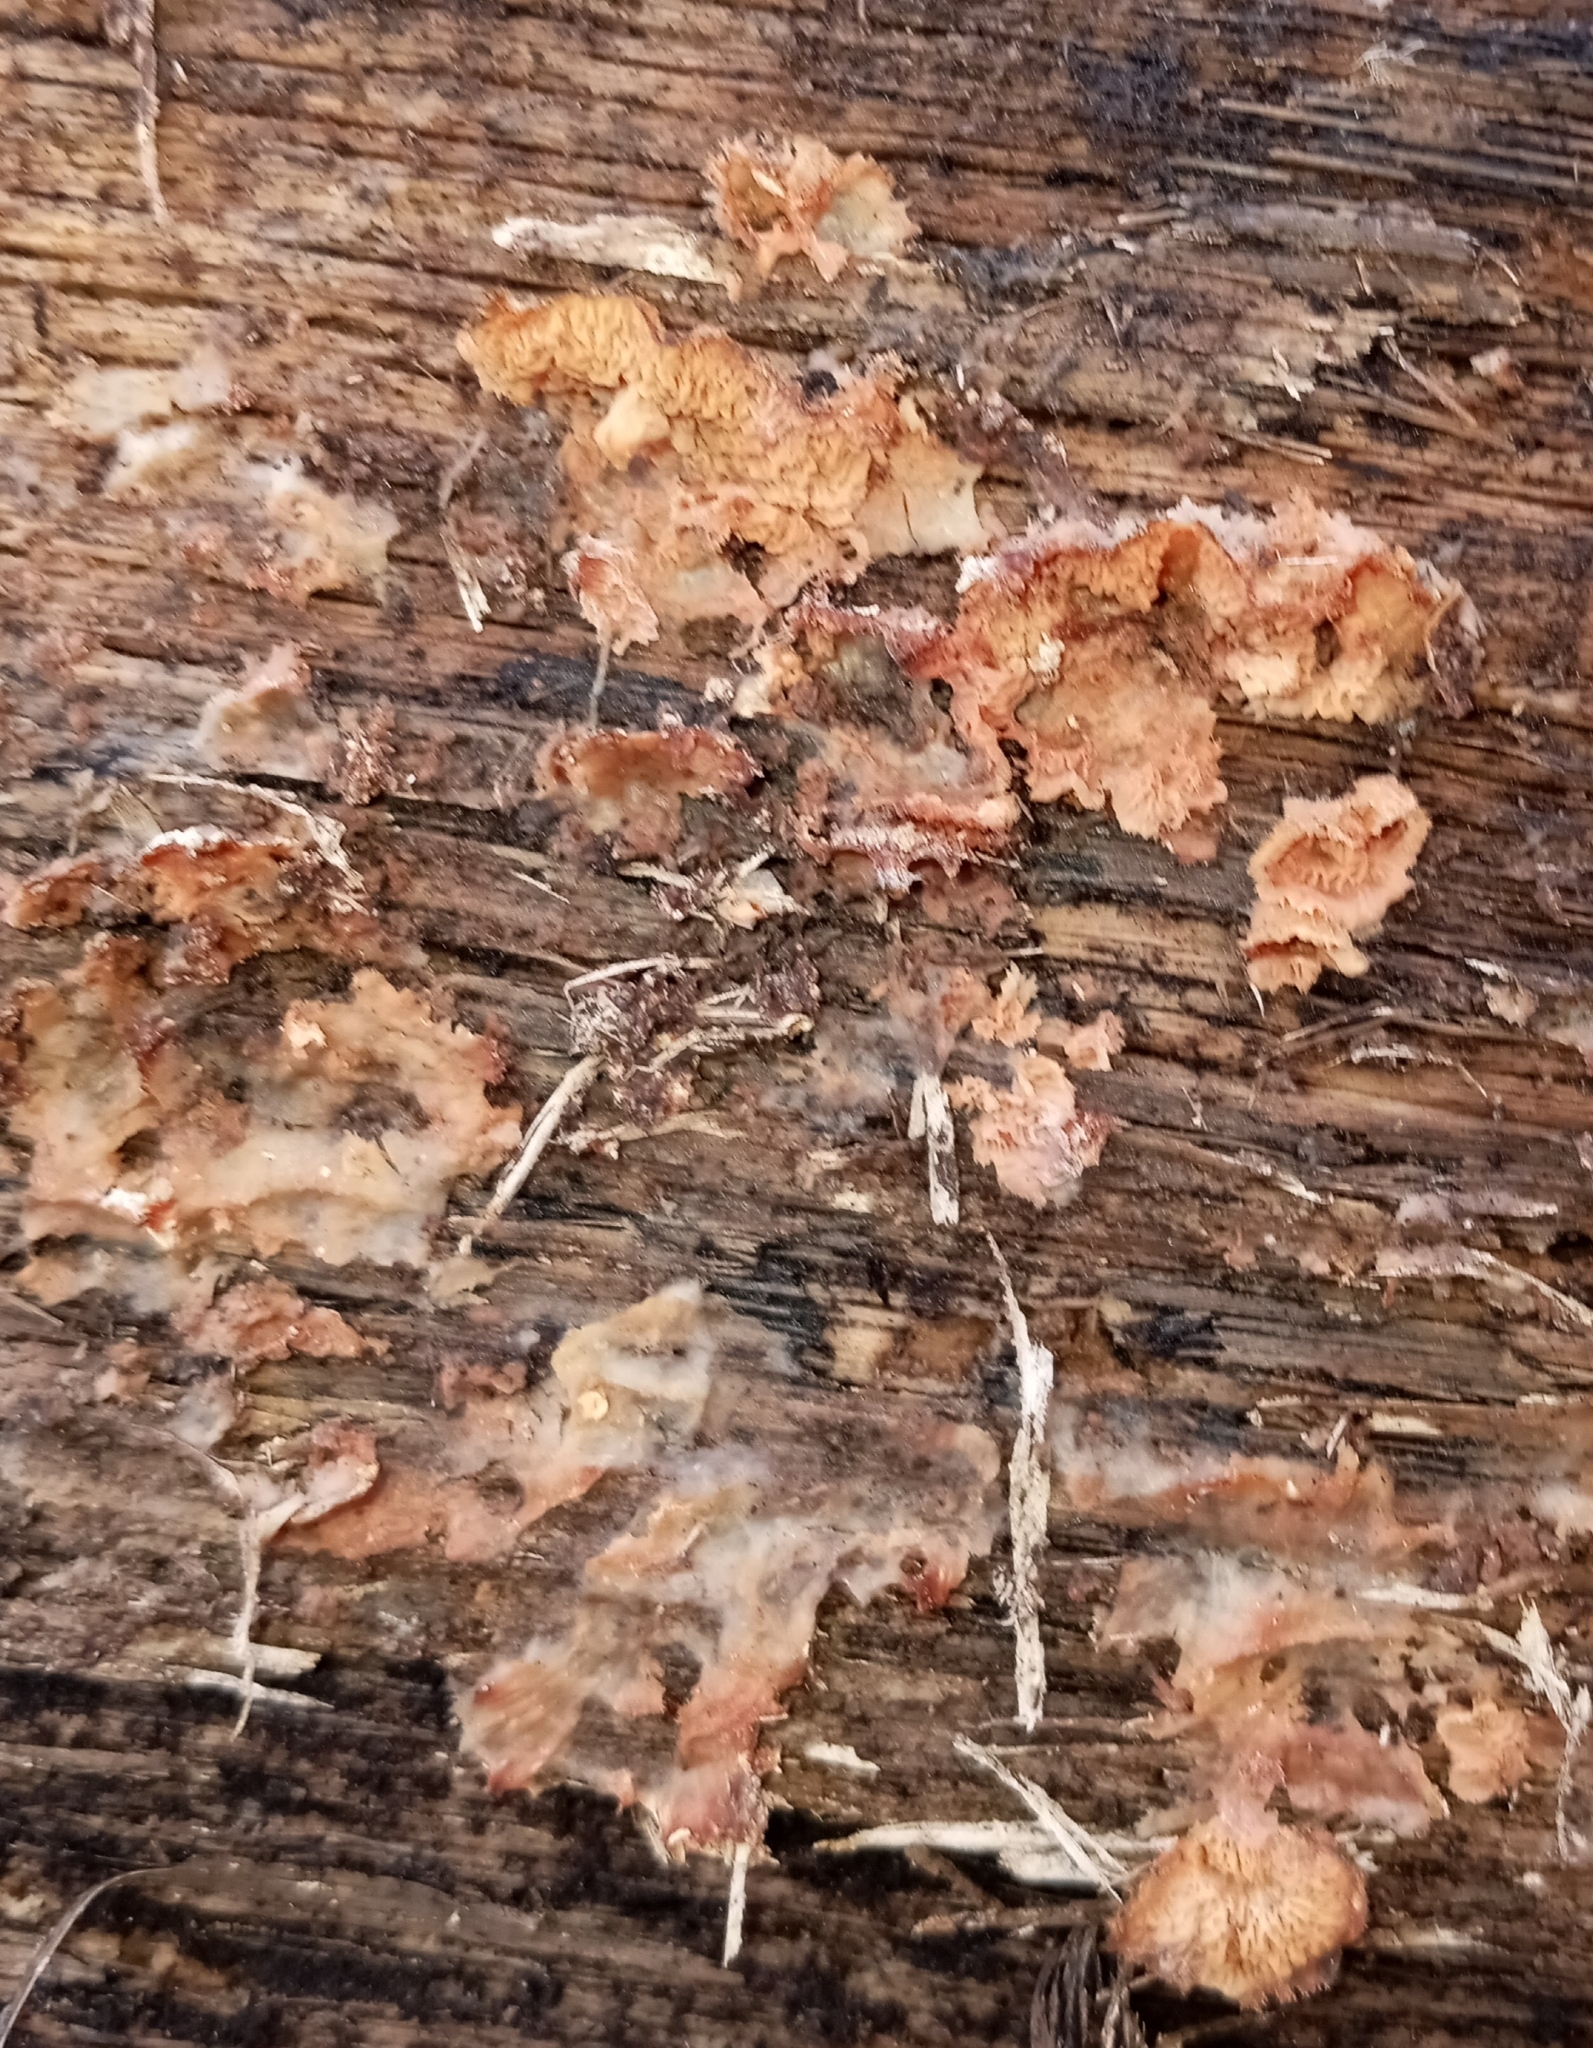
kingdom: Fungi
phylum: Basidiomycota
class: Agaricomycetes
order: Polyporales
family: Meruliaceae
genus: Phlebia
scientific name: Phlebia tremellosa
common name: Jelly rot
